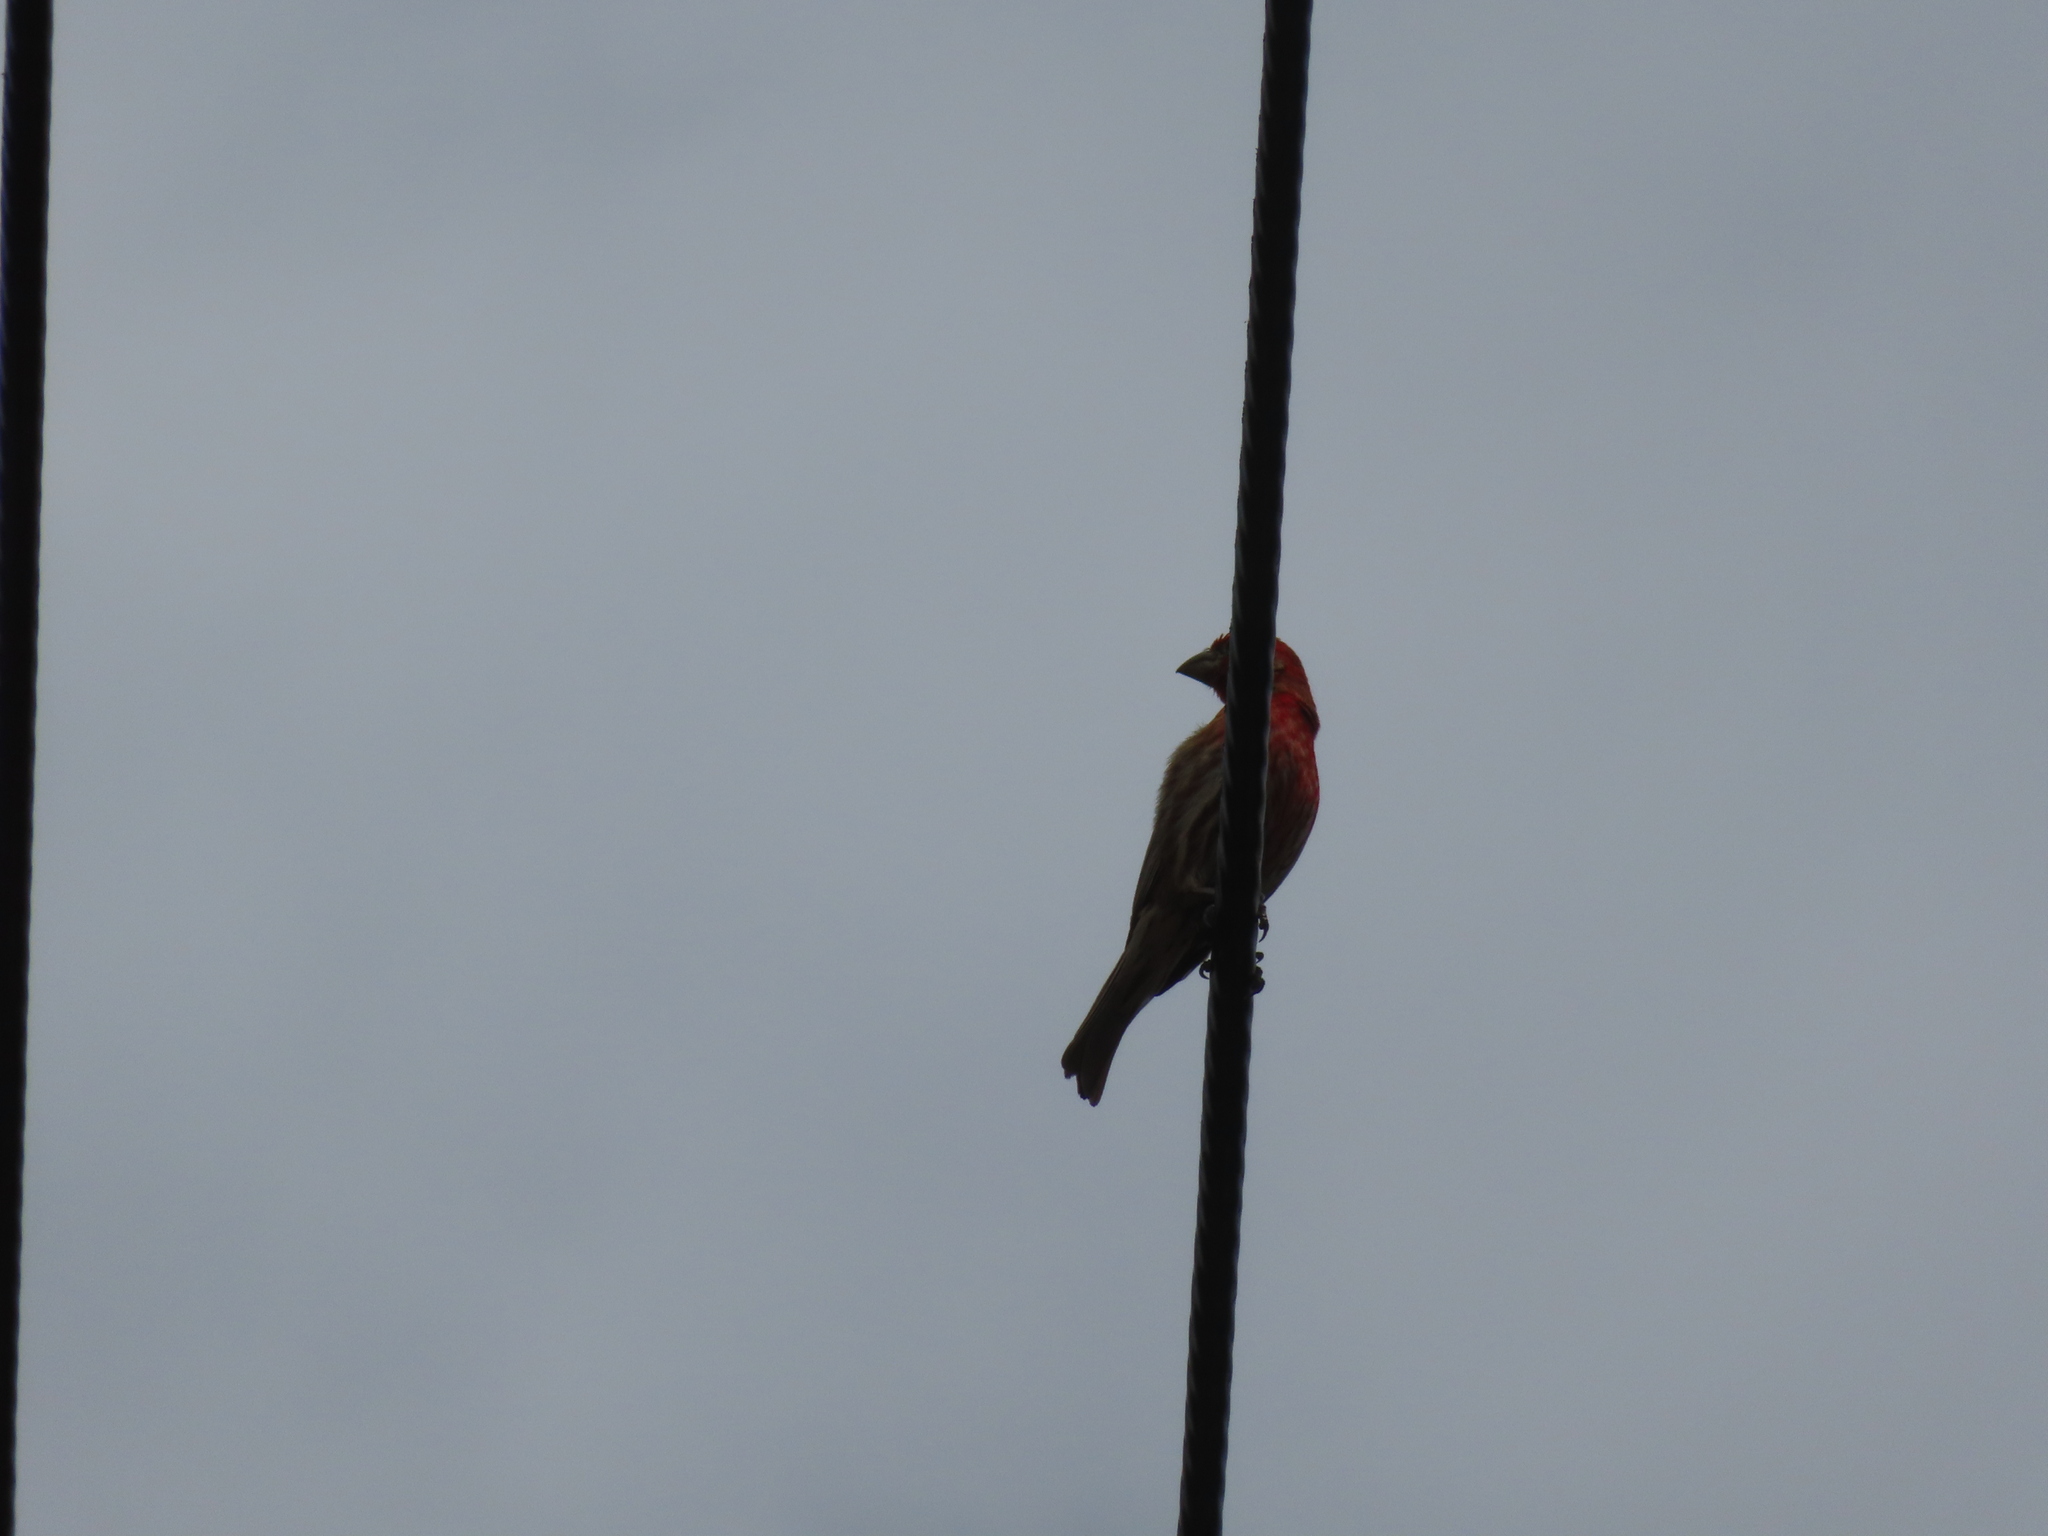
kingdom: Animalia
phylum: Chordata
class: Aves
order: Passeriformes
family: Fringillidae
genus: Haemorhous
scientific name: Haemorhous mexicanus
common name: House finch
